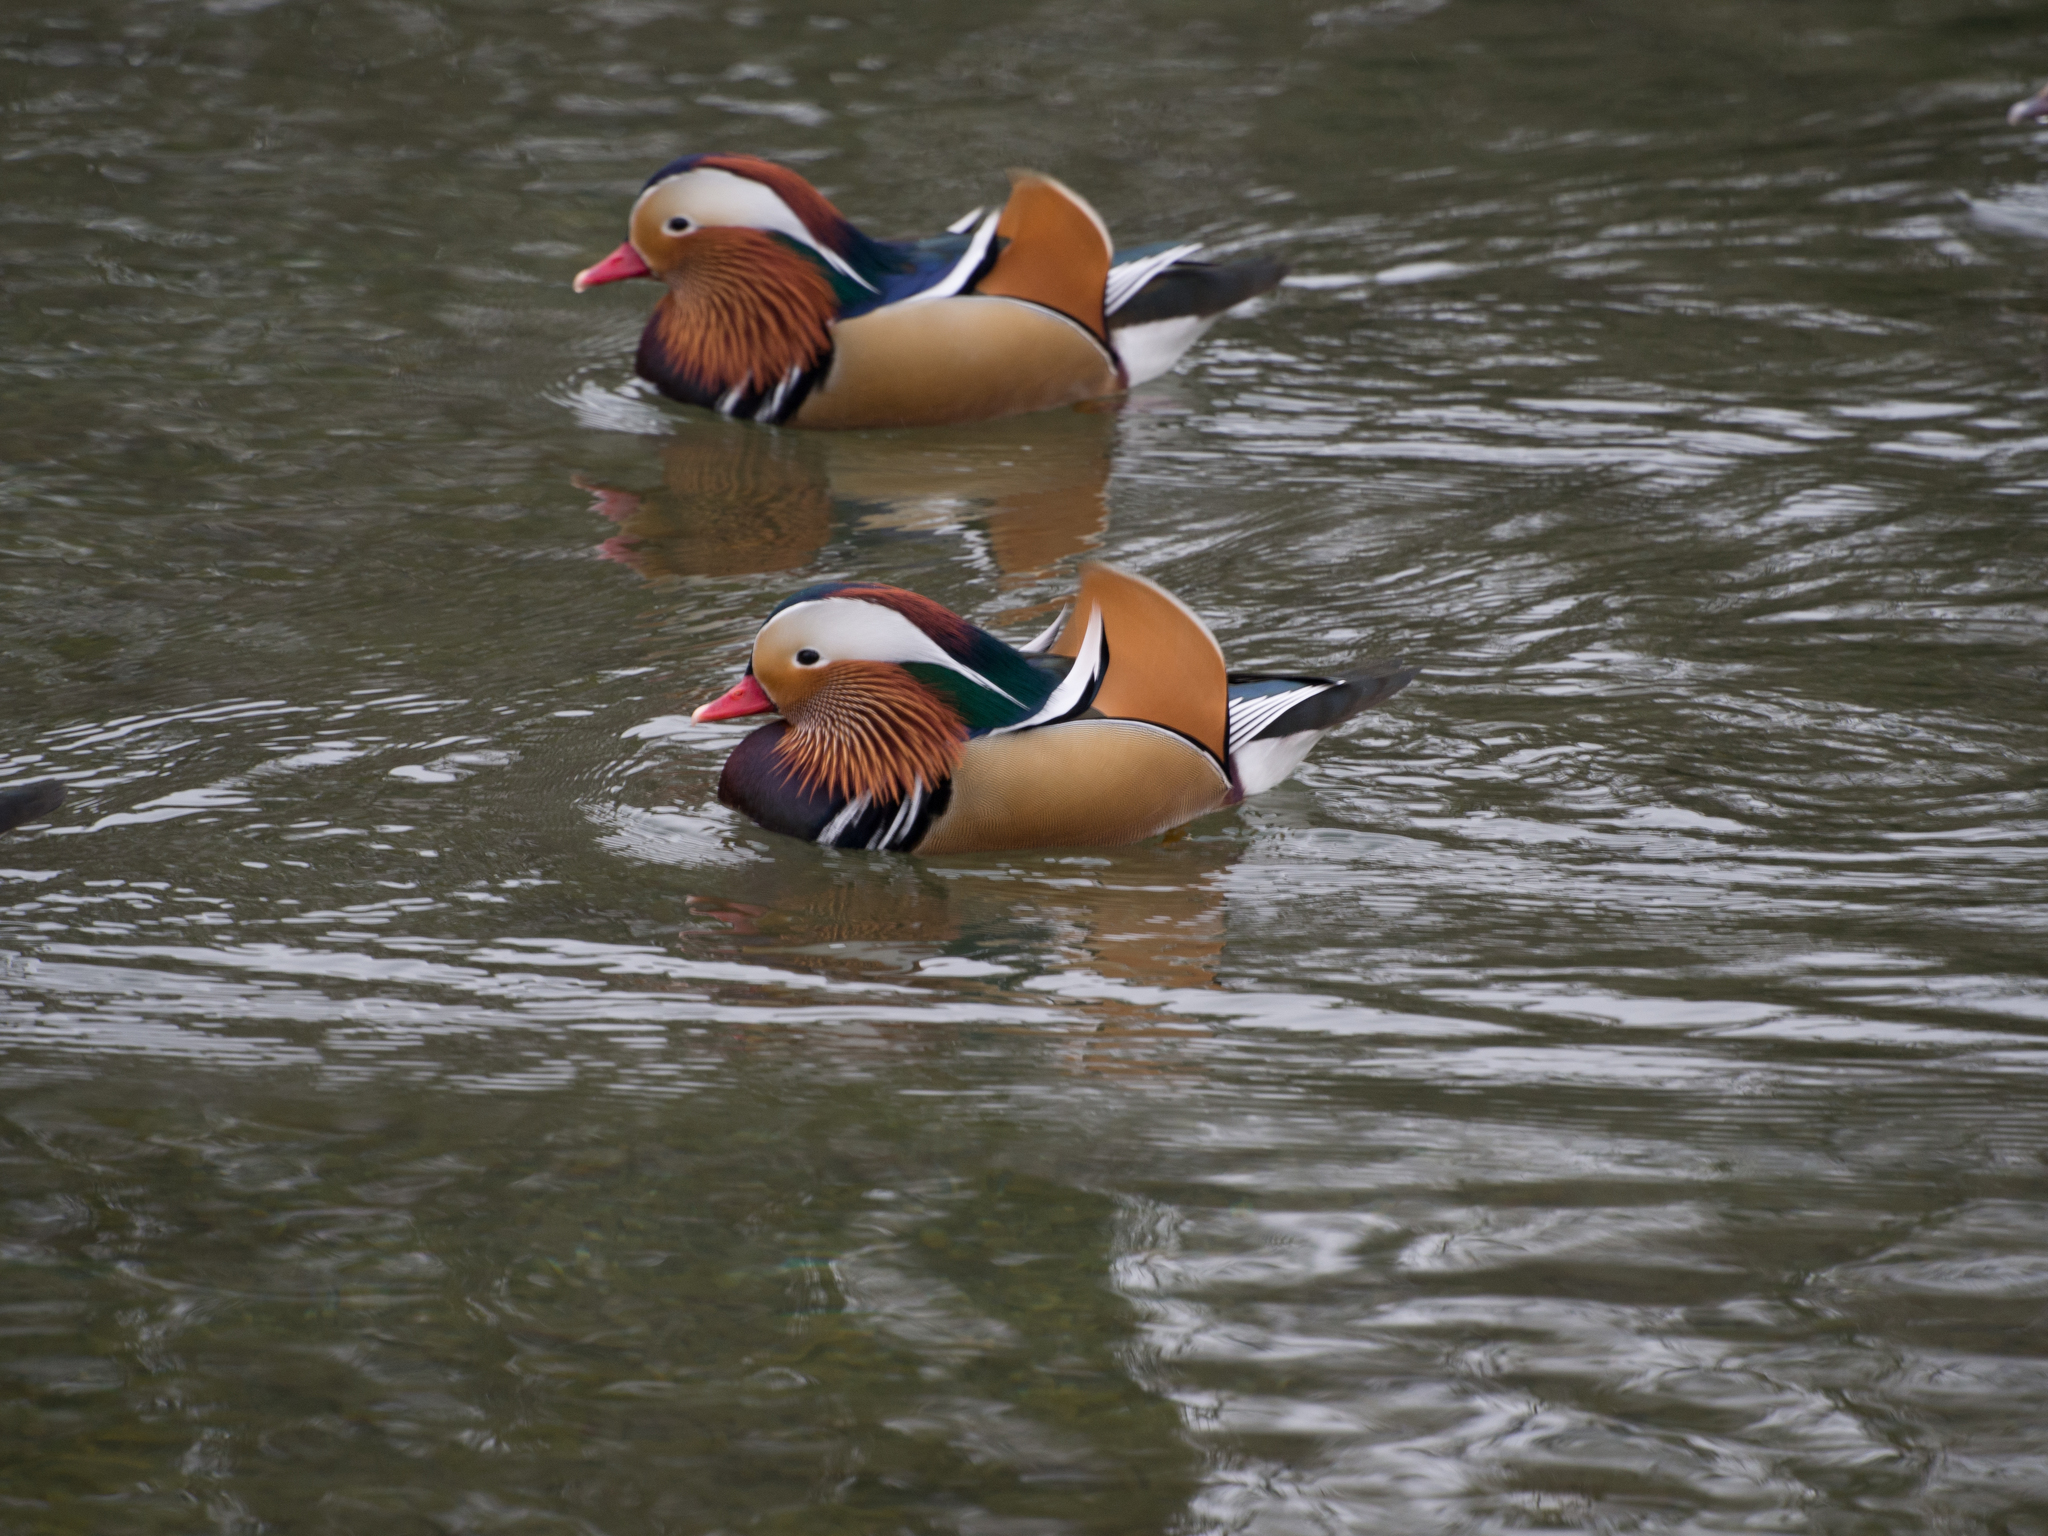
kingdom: Animalia
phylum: Chordata
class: Aves
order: Anseriformes
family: Anatidae
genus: Aix
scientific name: Aix galericulata
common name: Mandarin duck
